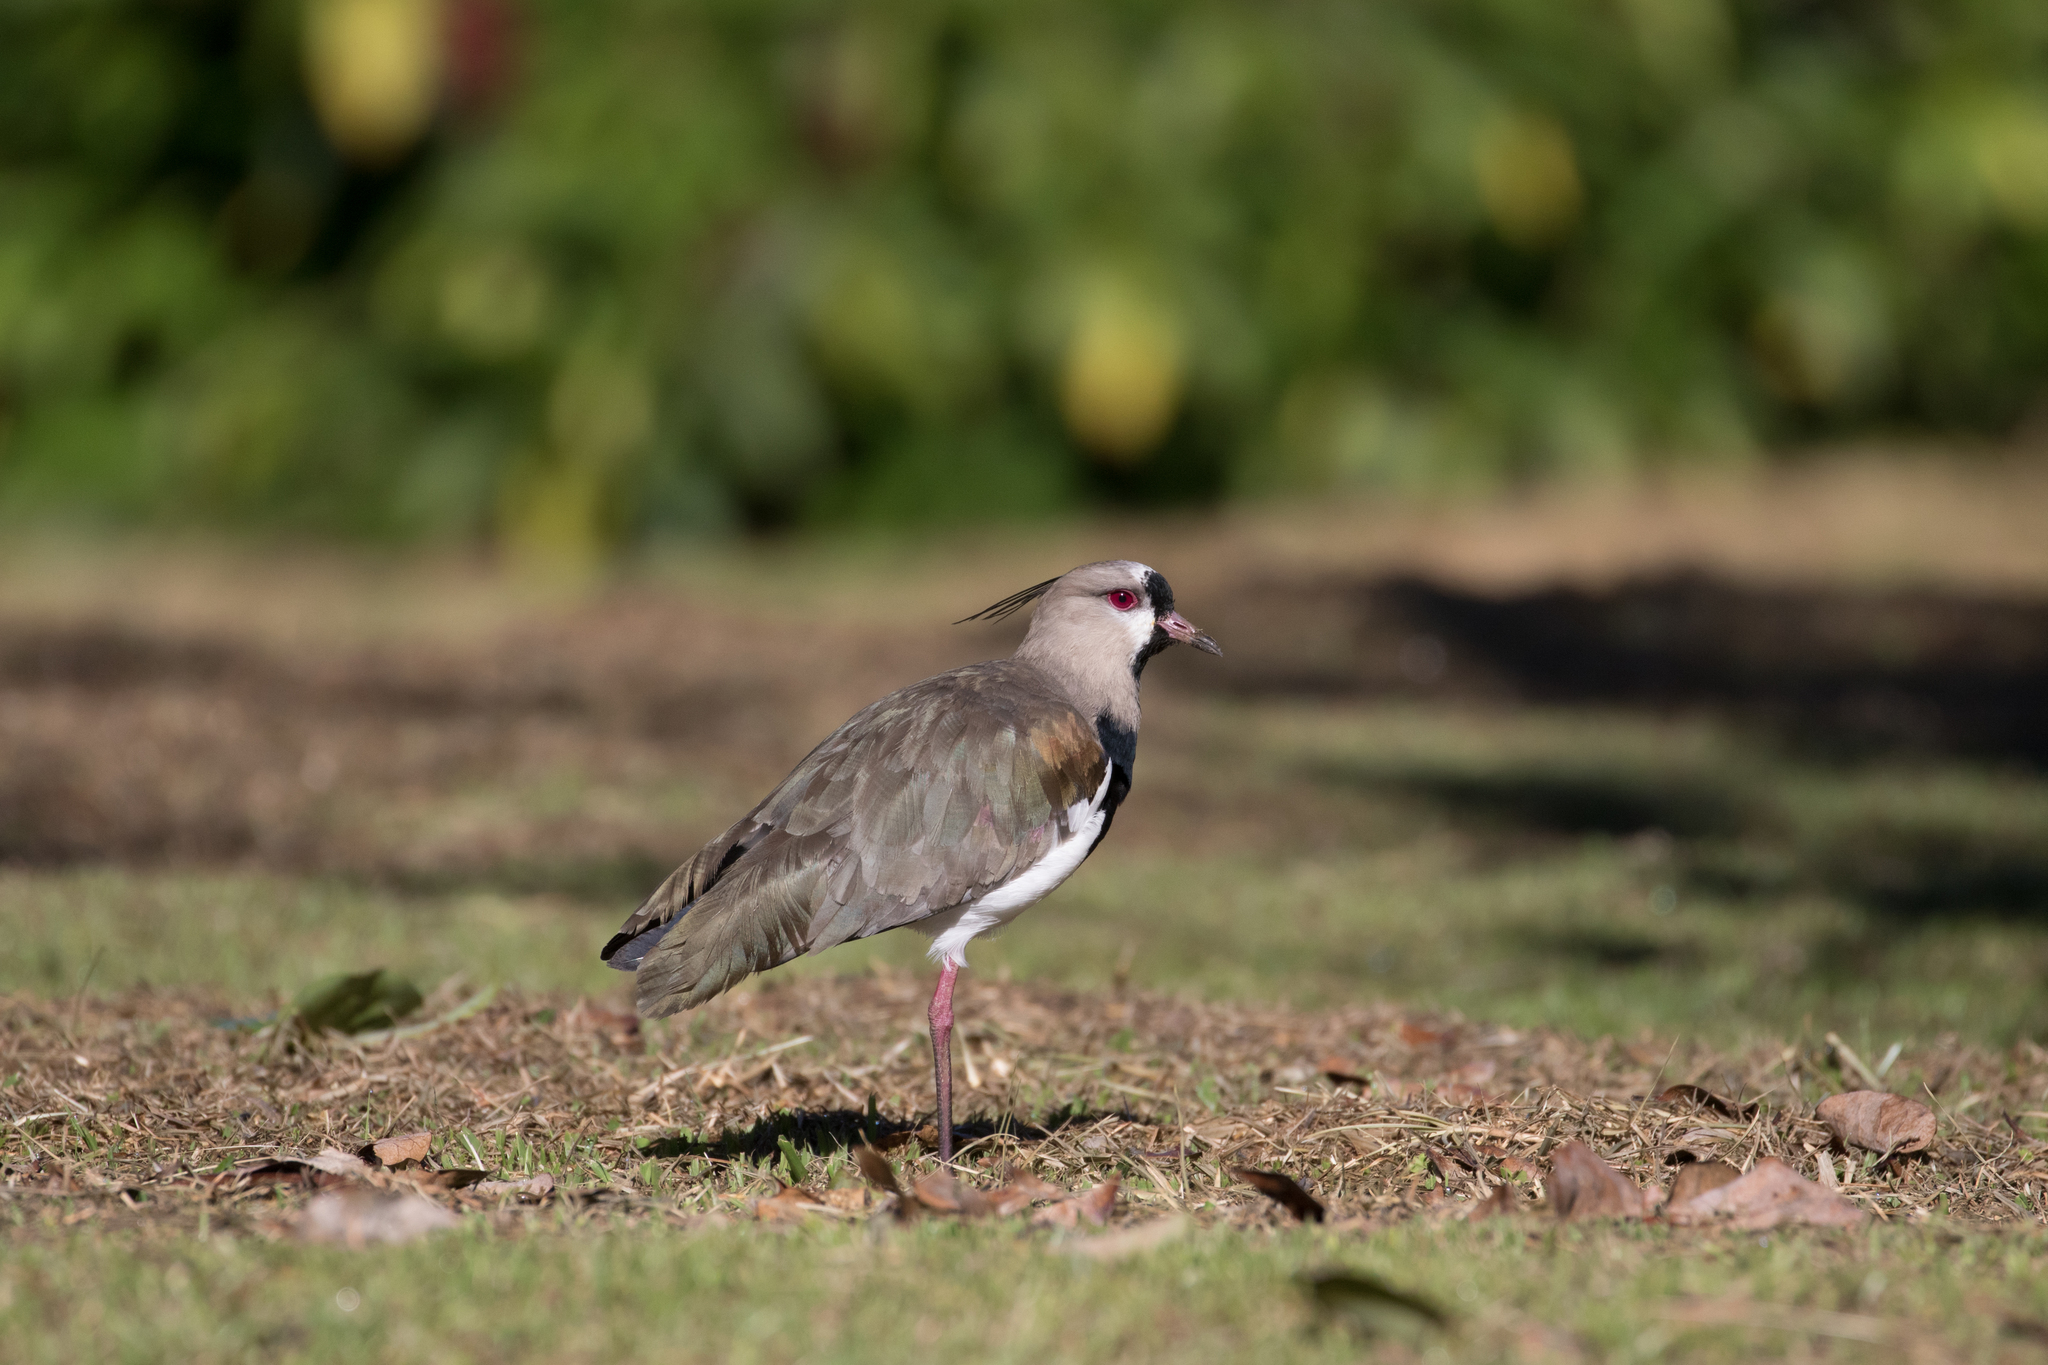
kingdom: Animalia
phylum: Chordata
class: Aves
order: Charadriiformes
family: Charadriidae
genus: Vanellus
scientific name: Vanellus chilensis
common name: Southern lapwing
